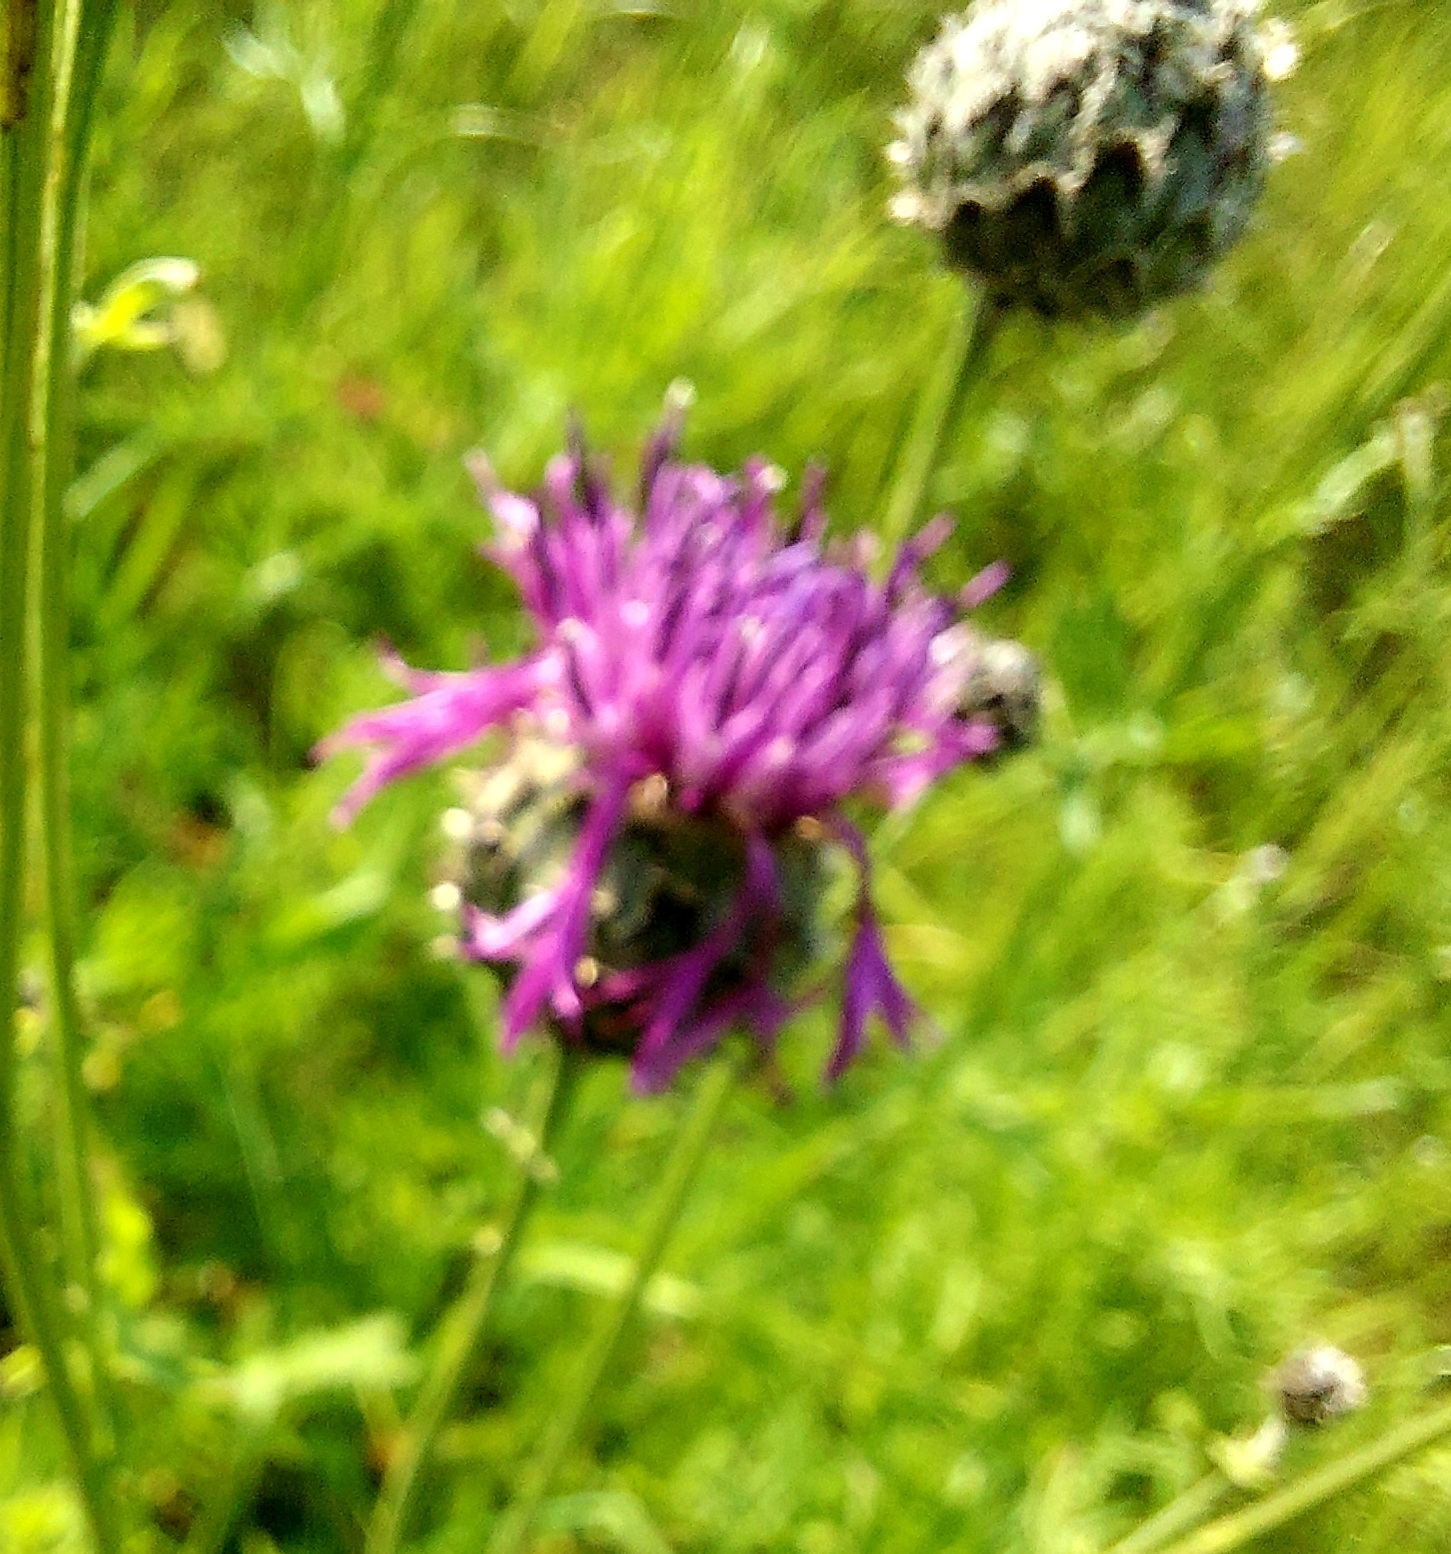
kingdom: Plantae
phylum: Tracheophyta
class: Magnoliopsida
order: Asterales
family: Asteraceae
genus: Centaurea
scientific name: Centaurea scabiosa
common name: Greater knapweed
